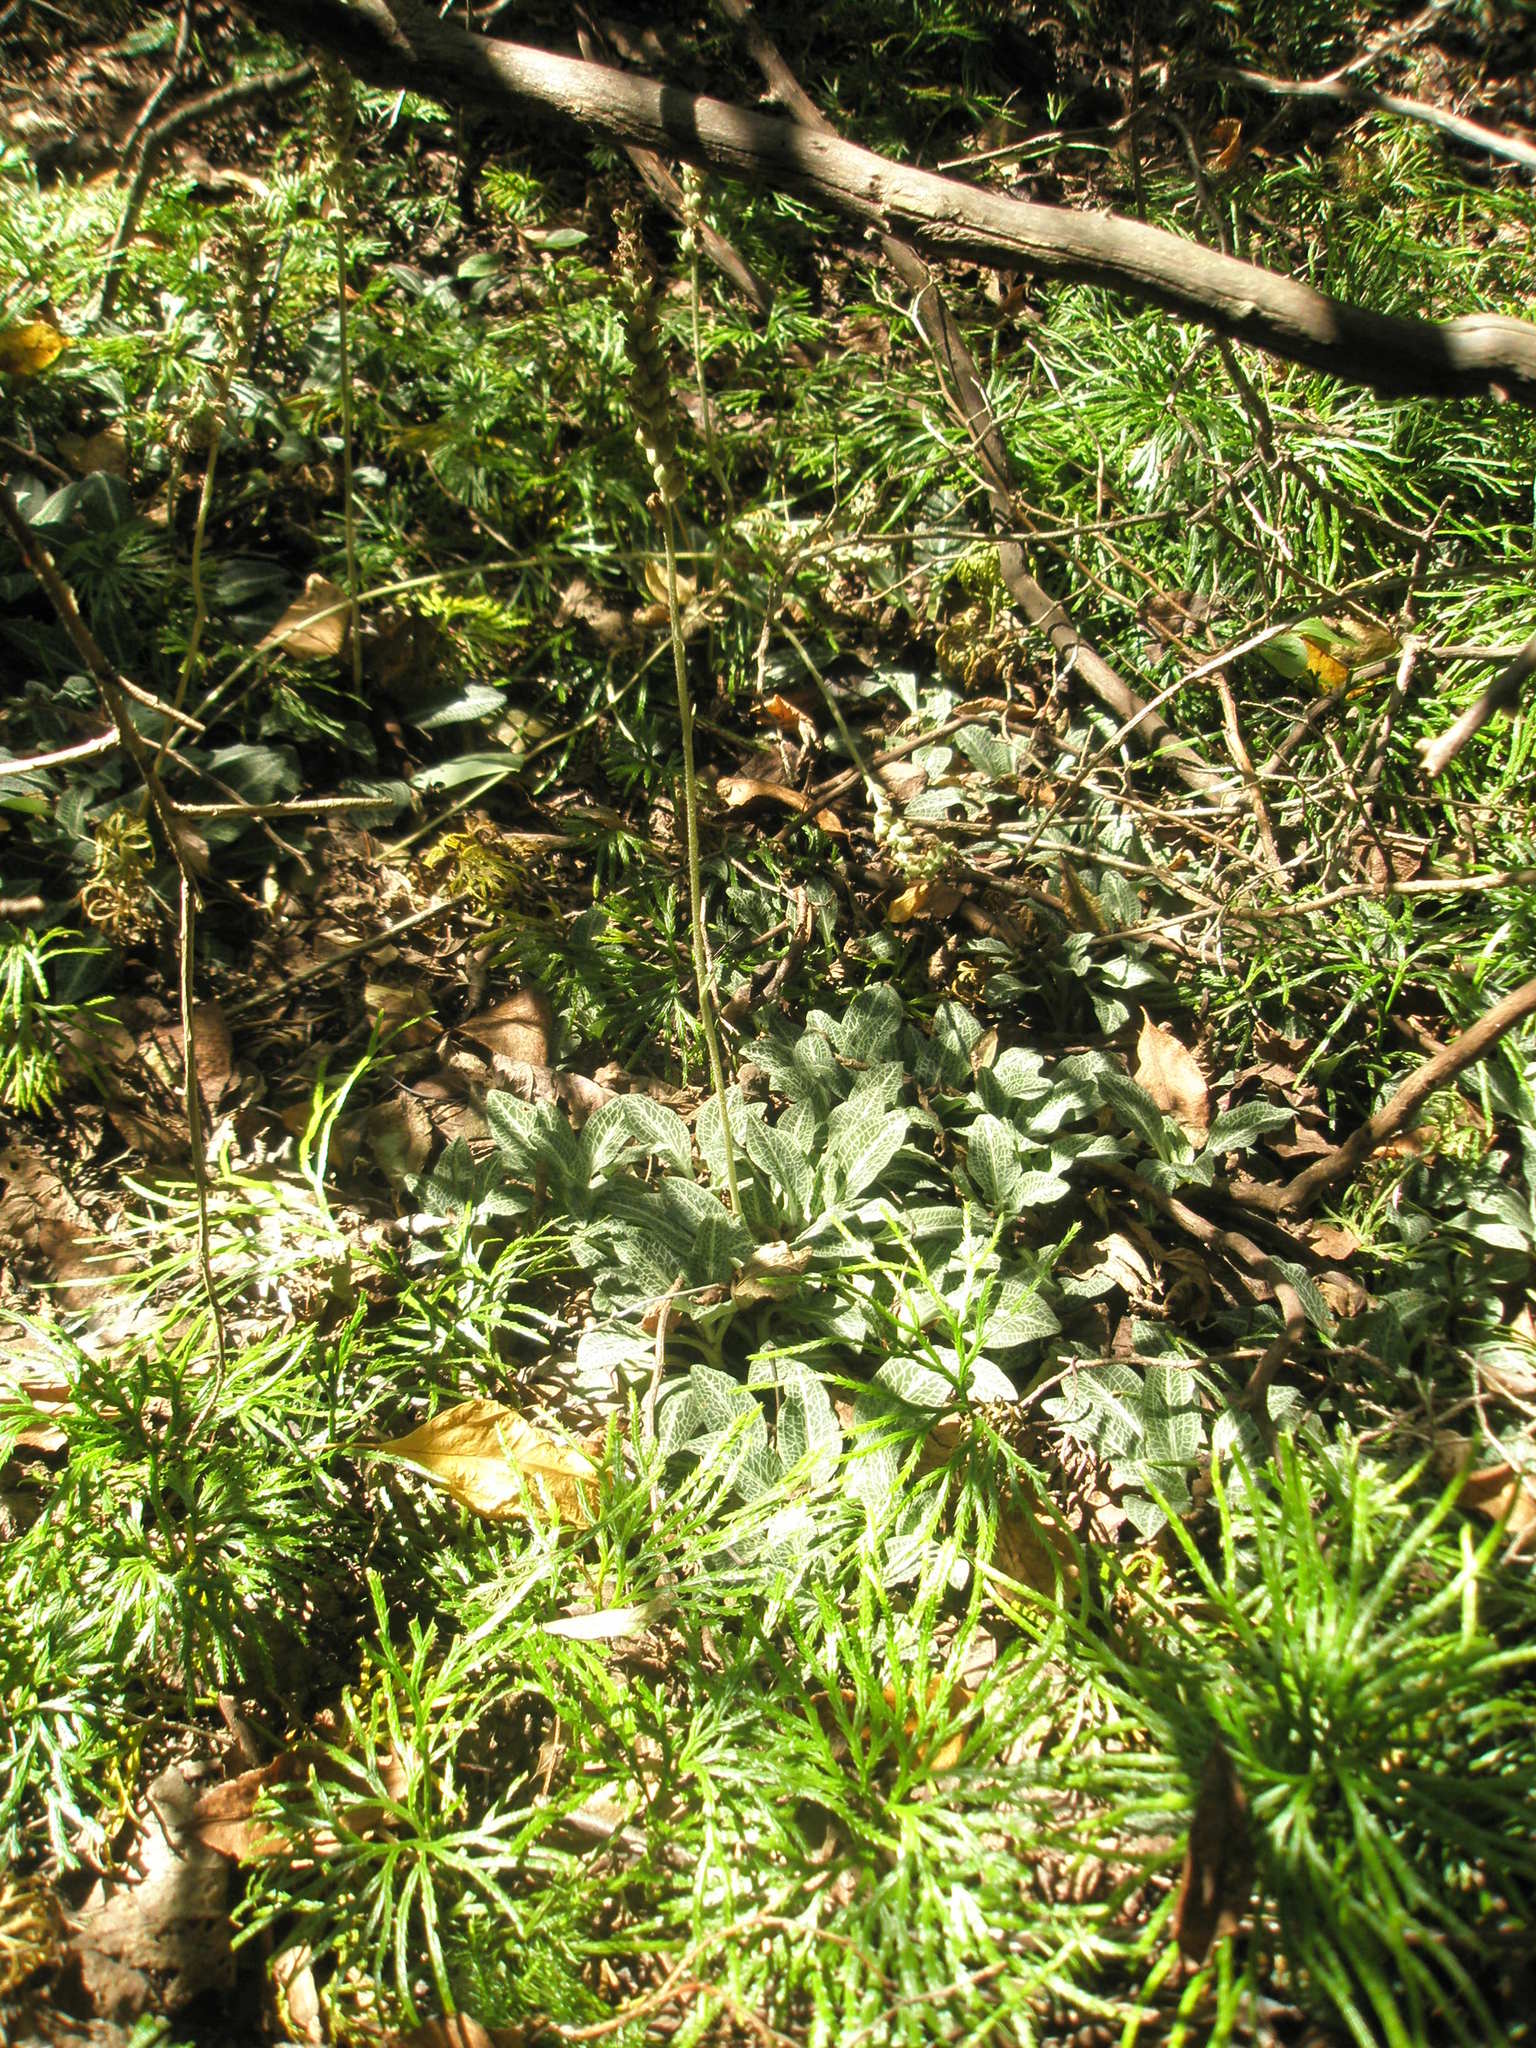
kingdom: Plantae
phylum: Tracheophyta
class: Liliopsida
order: Asparagales
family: Orchidaceae
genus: Goodyera
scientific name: Goodyera pubescens
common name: Downy rattlesnake-plantain
